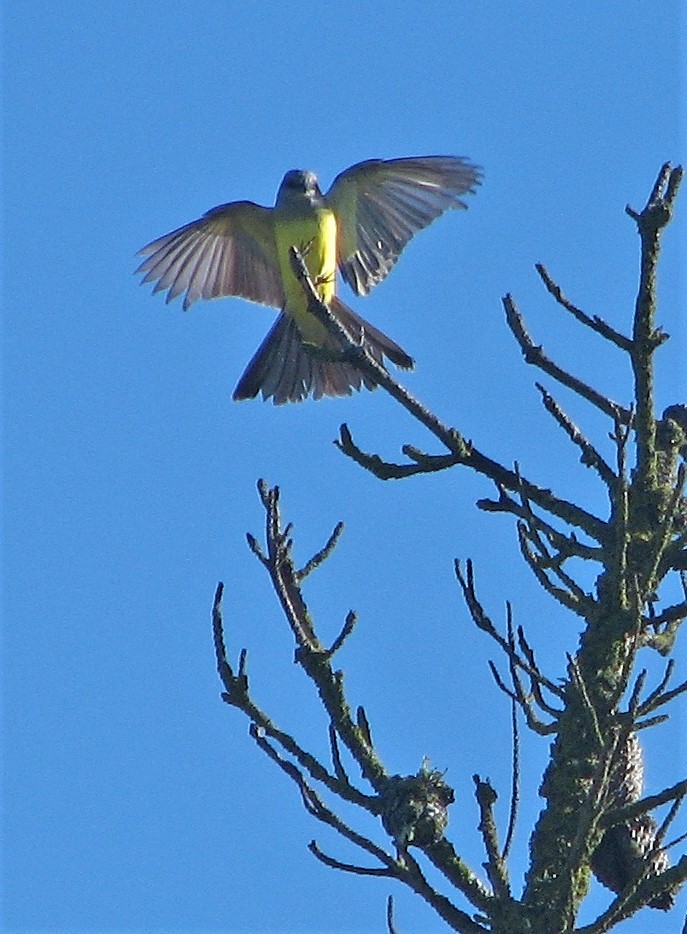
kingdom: Animalia
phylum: Chordata
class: Aves
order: Passeriformes
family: Tyrannidae
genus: Tyrannus
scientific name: Tyrannus melancholicus
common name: Tropical kingbird
